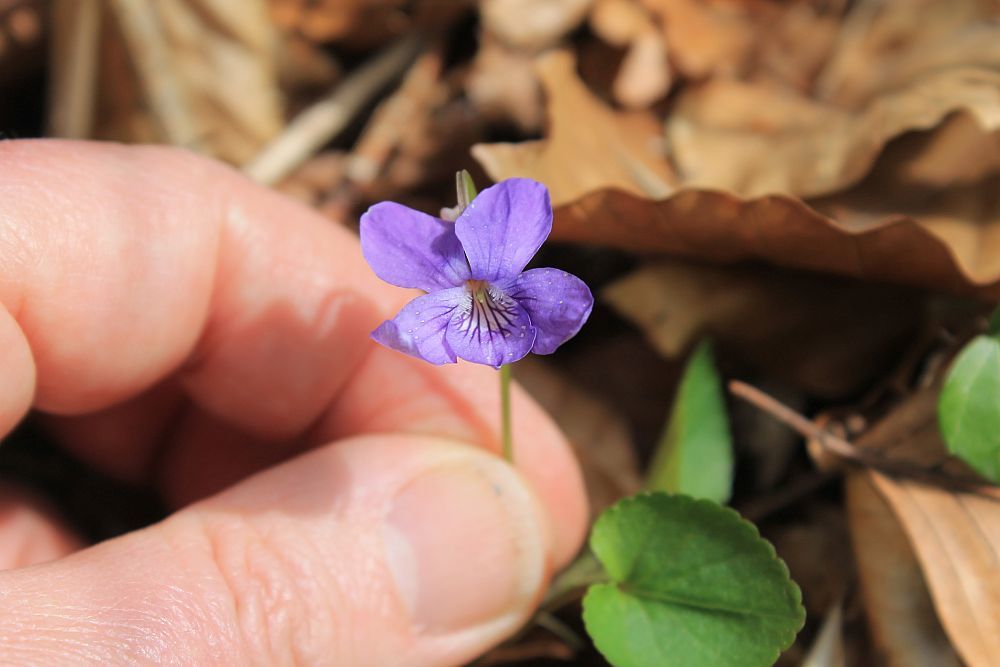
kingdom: Plantae
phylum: Tracheophyta
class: Magnoliopsida
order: Malpighiales
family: Violaceae
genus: Viola
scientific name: Viola riviniana
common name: Common dog-violet
